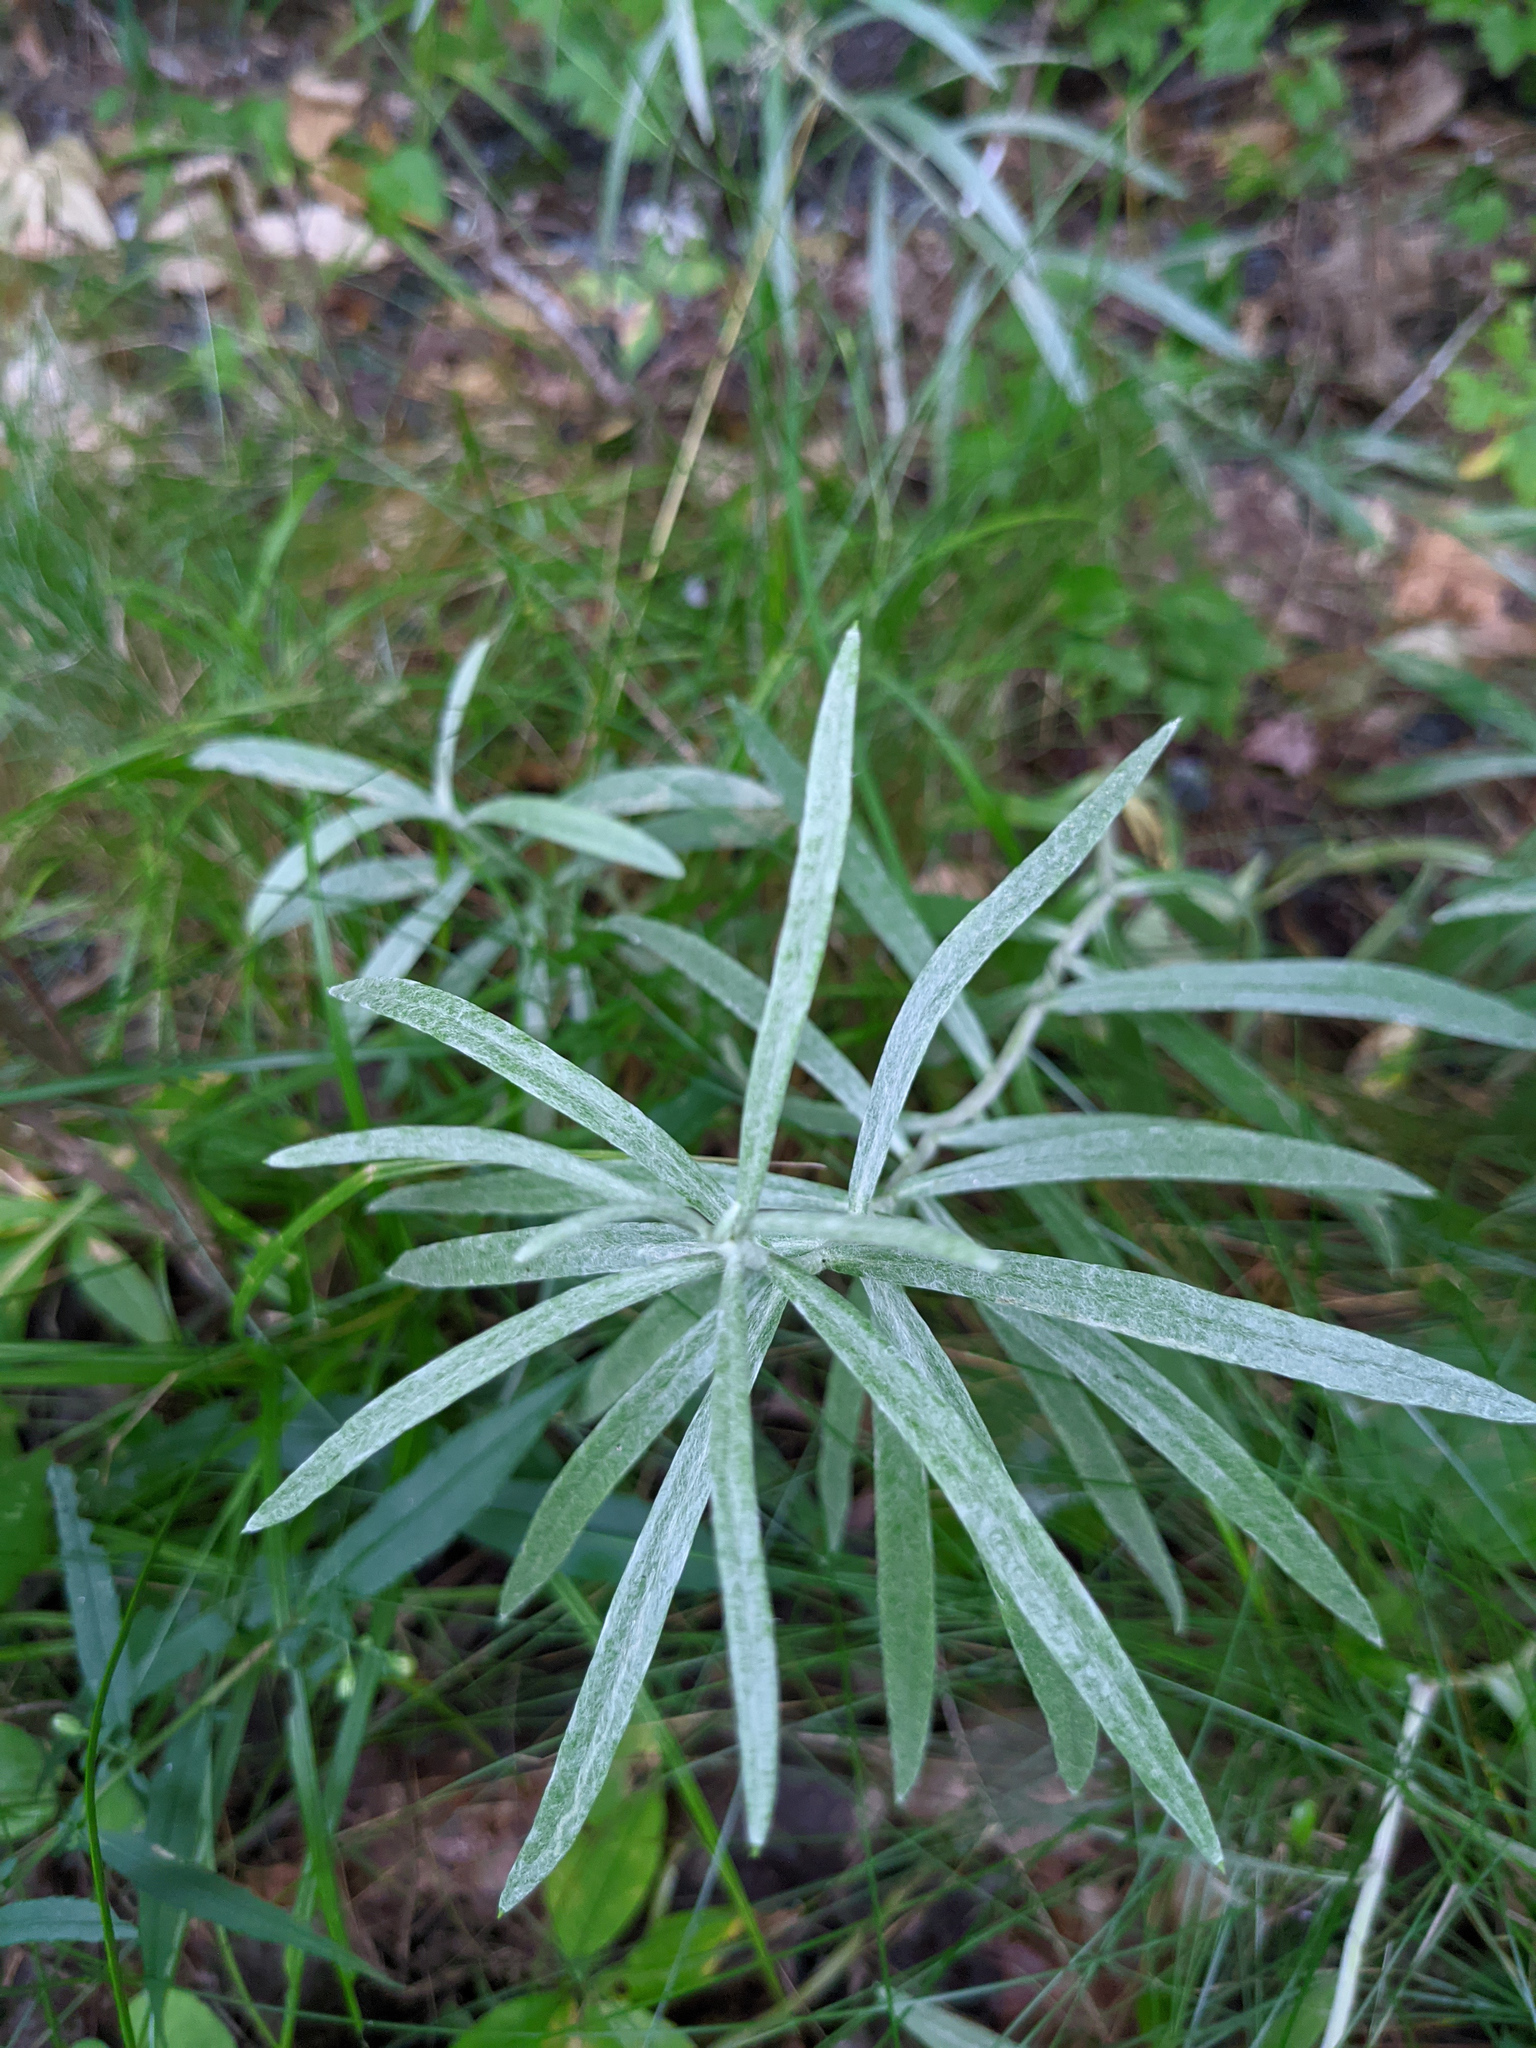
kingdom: Plantae
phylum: Tracheophyta
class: Magnoliopsida
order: Asterales
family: Asteraceae
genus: Anaphalis
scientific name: Anaphalis margaritacea
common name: Pearly everlasting
